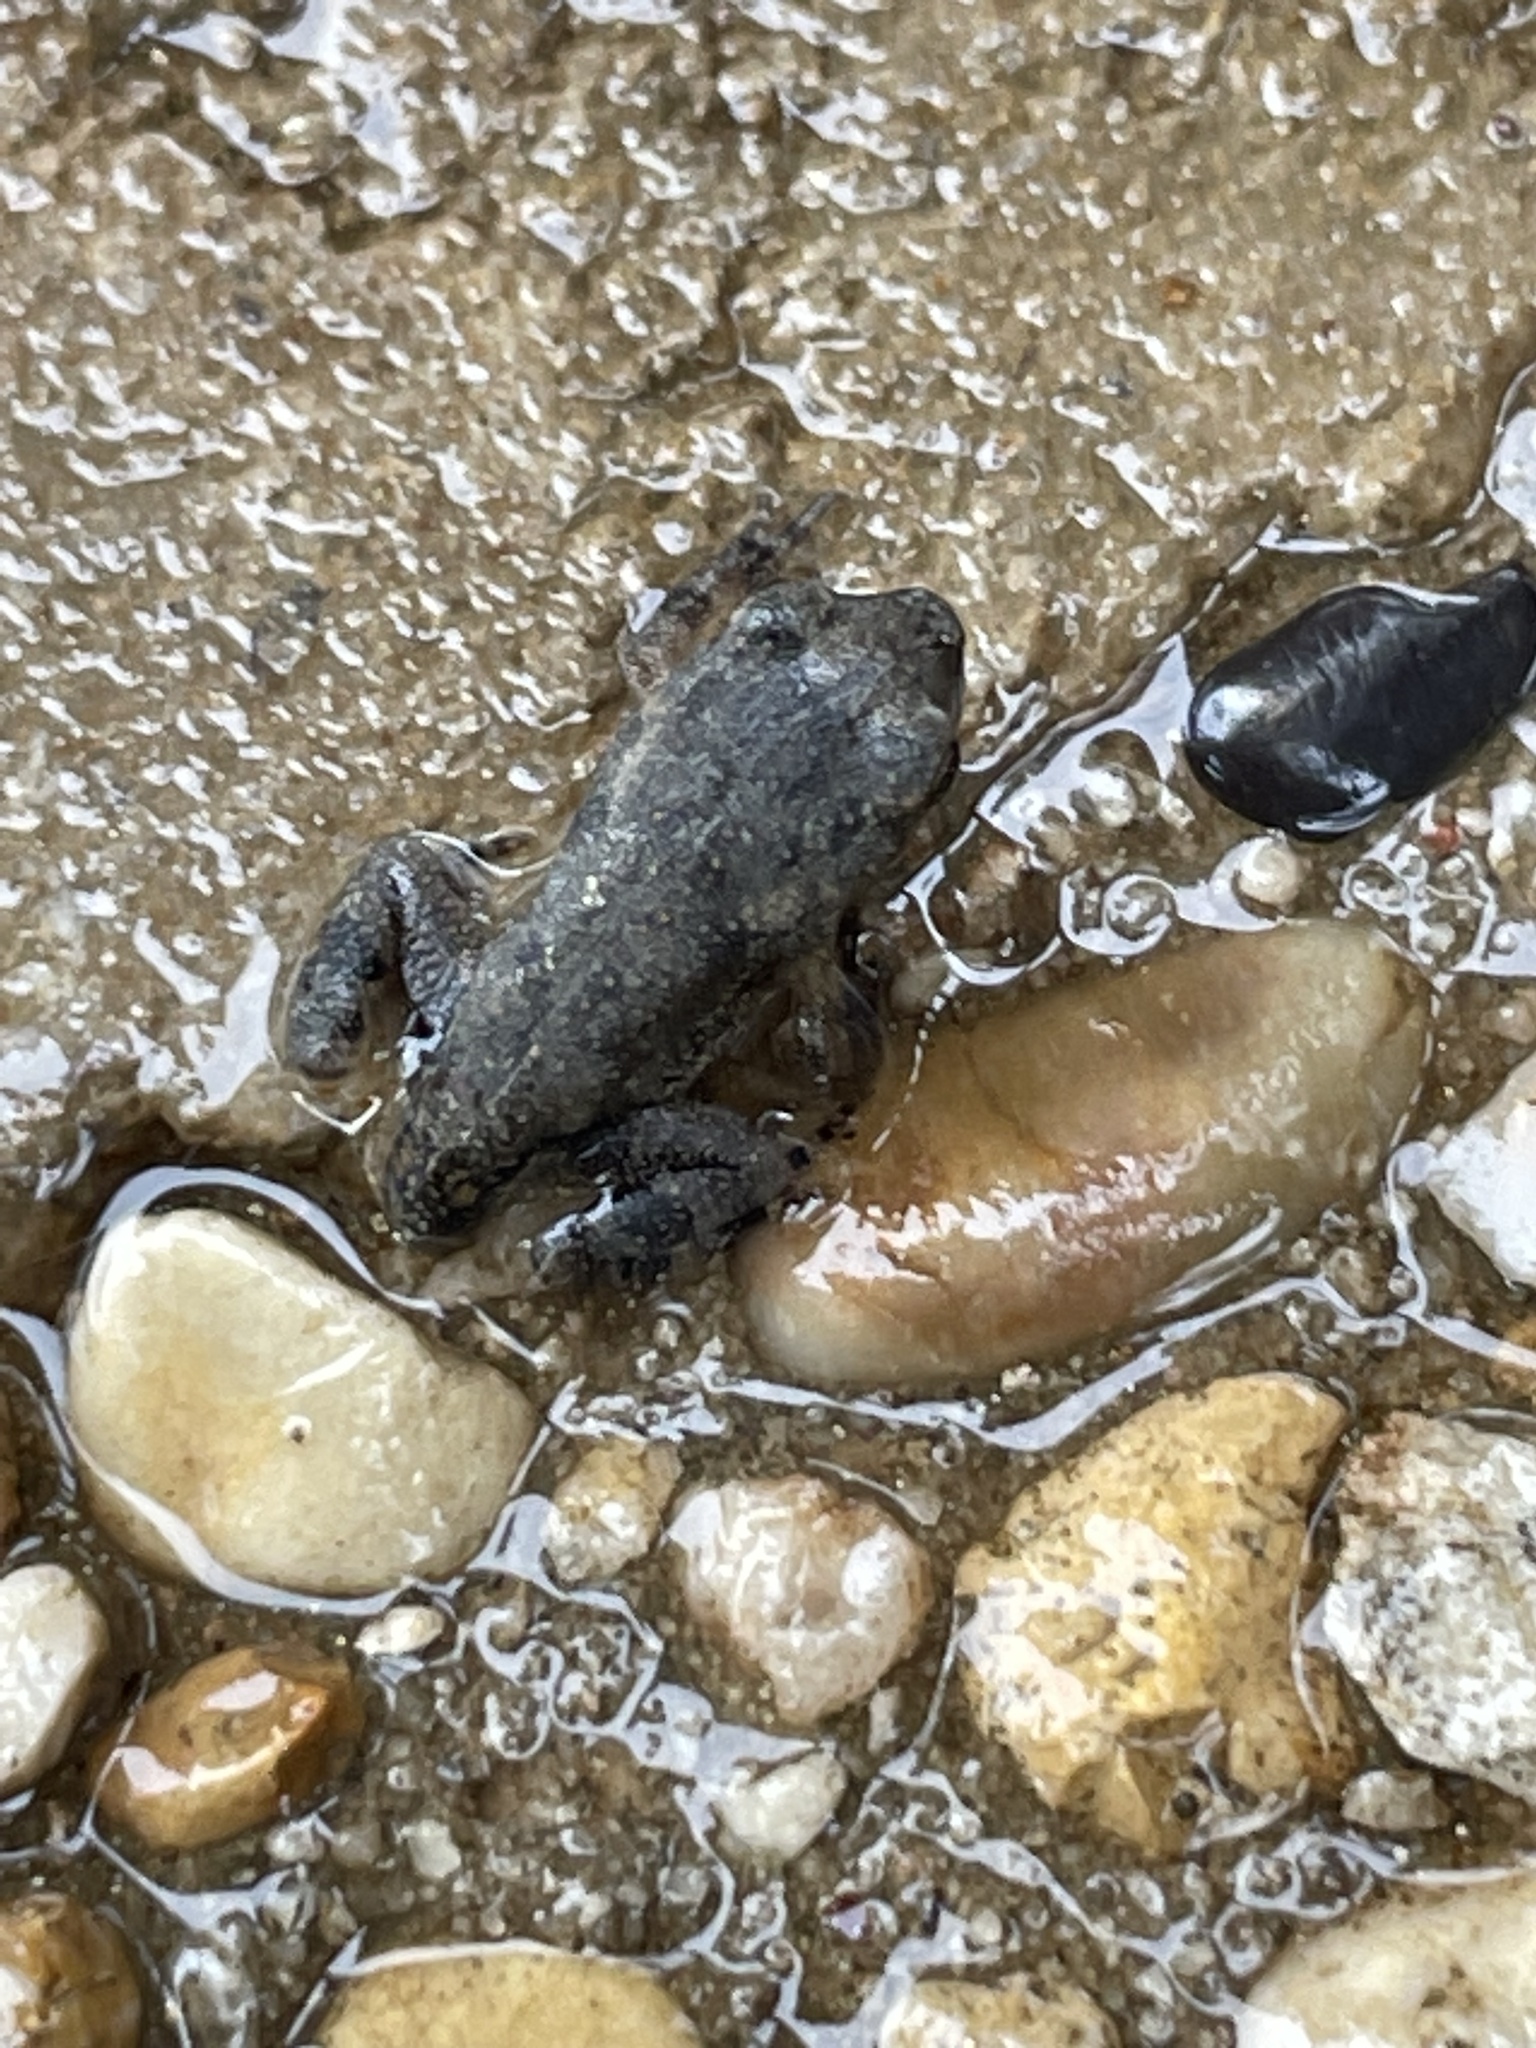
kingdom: Animalia
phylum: Chordata
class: Amphibia
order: Anura
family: Bufonidae
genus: Incilius
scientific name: Incilius nebulifer
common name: Gulf coast toad
